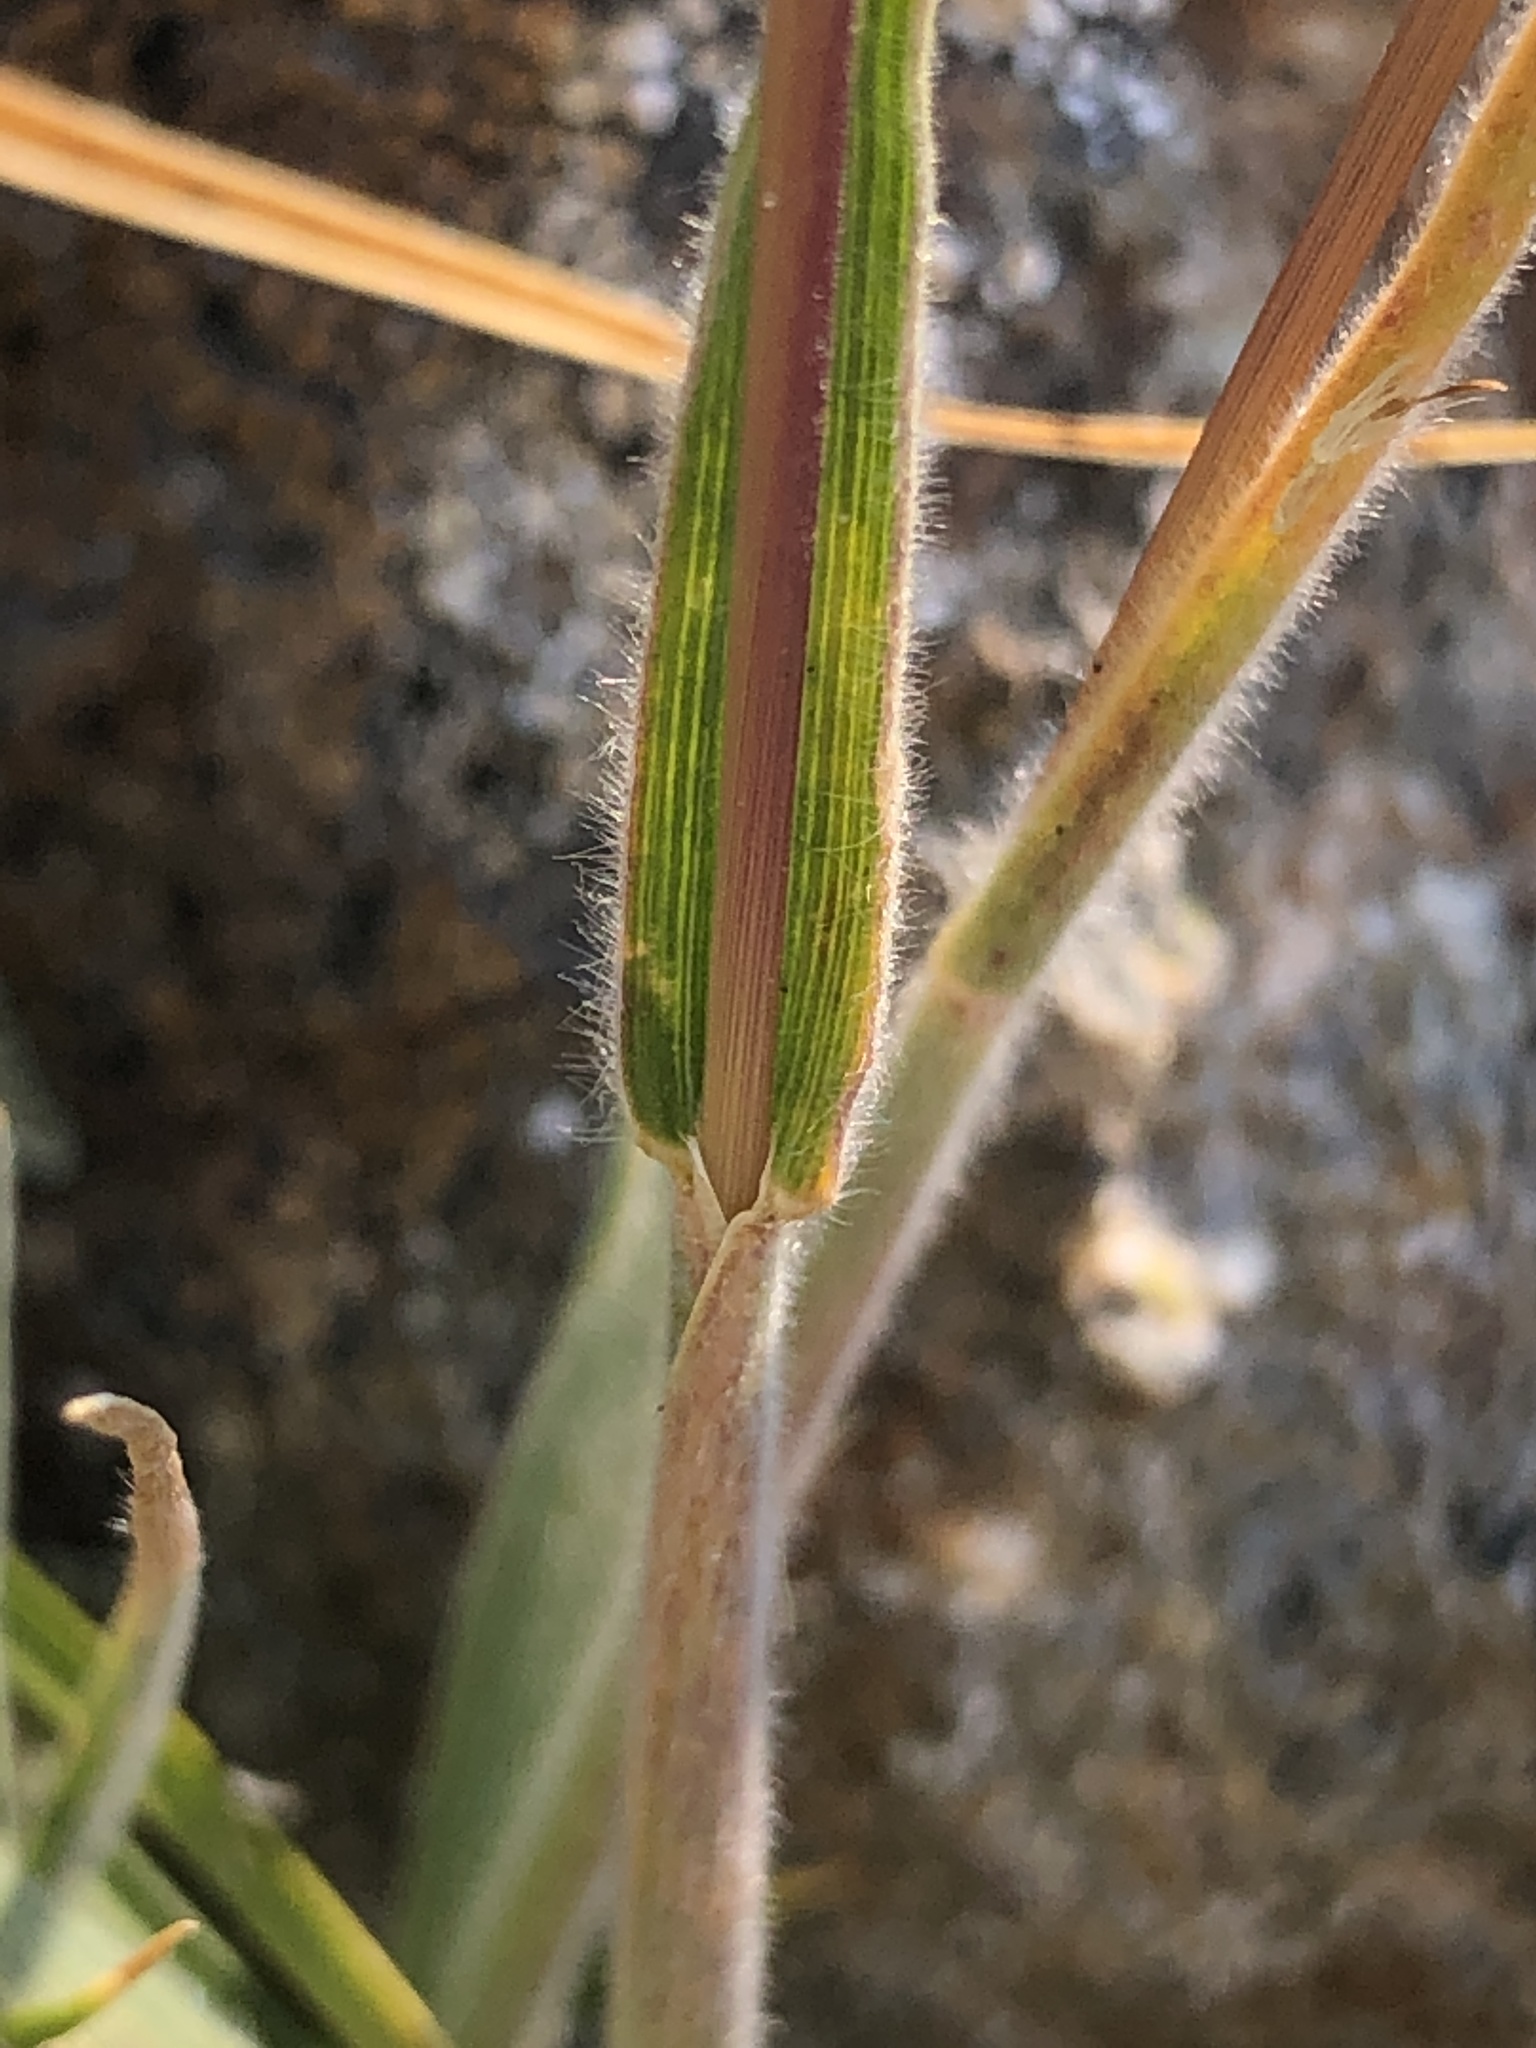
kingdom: Plantae
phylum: Tracheophyta
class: Liliopsida
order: Poales
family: Poaceae
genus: Koeleria
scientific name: Koeleria spicata
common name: Mountain trisetum
